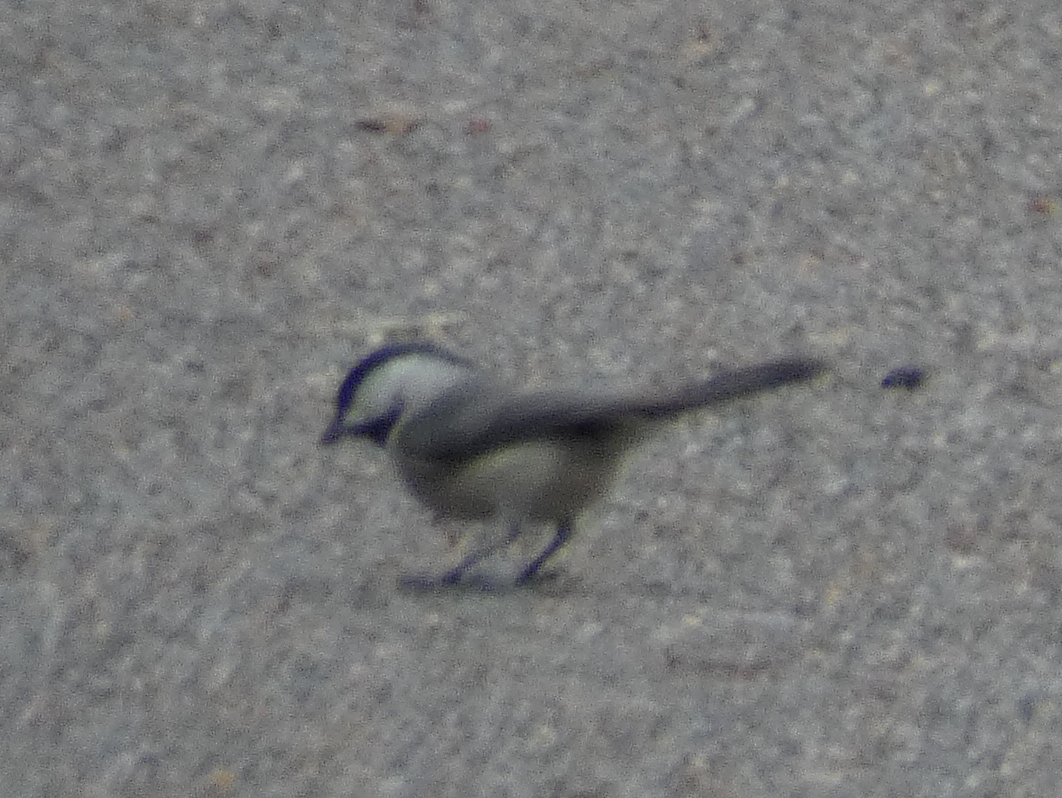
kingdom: Animalia
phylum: Chordata
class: Aves
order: Passeriformes
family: Paridae
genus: Poecile
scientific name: Poecile carolinensis
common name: Carolina chickadee
